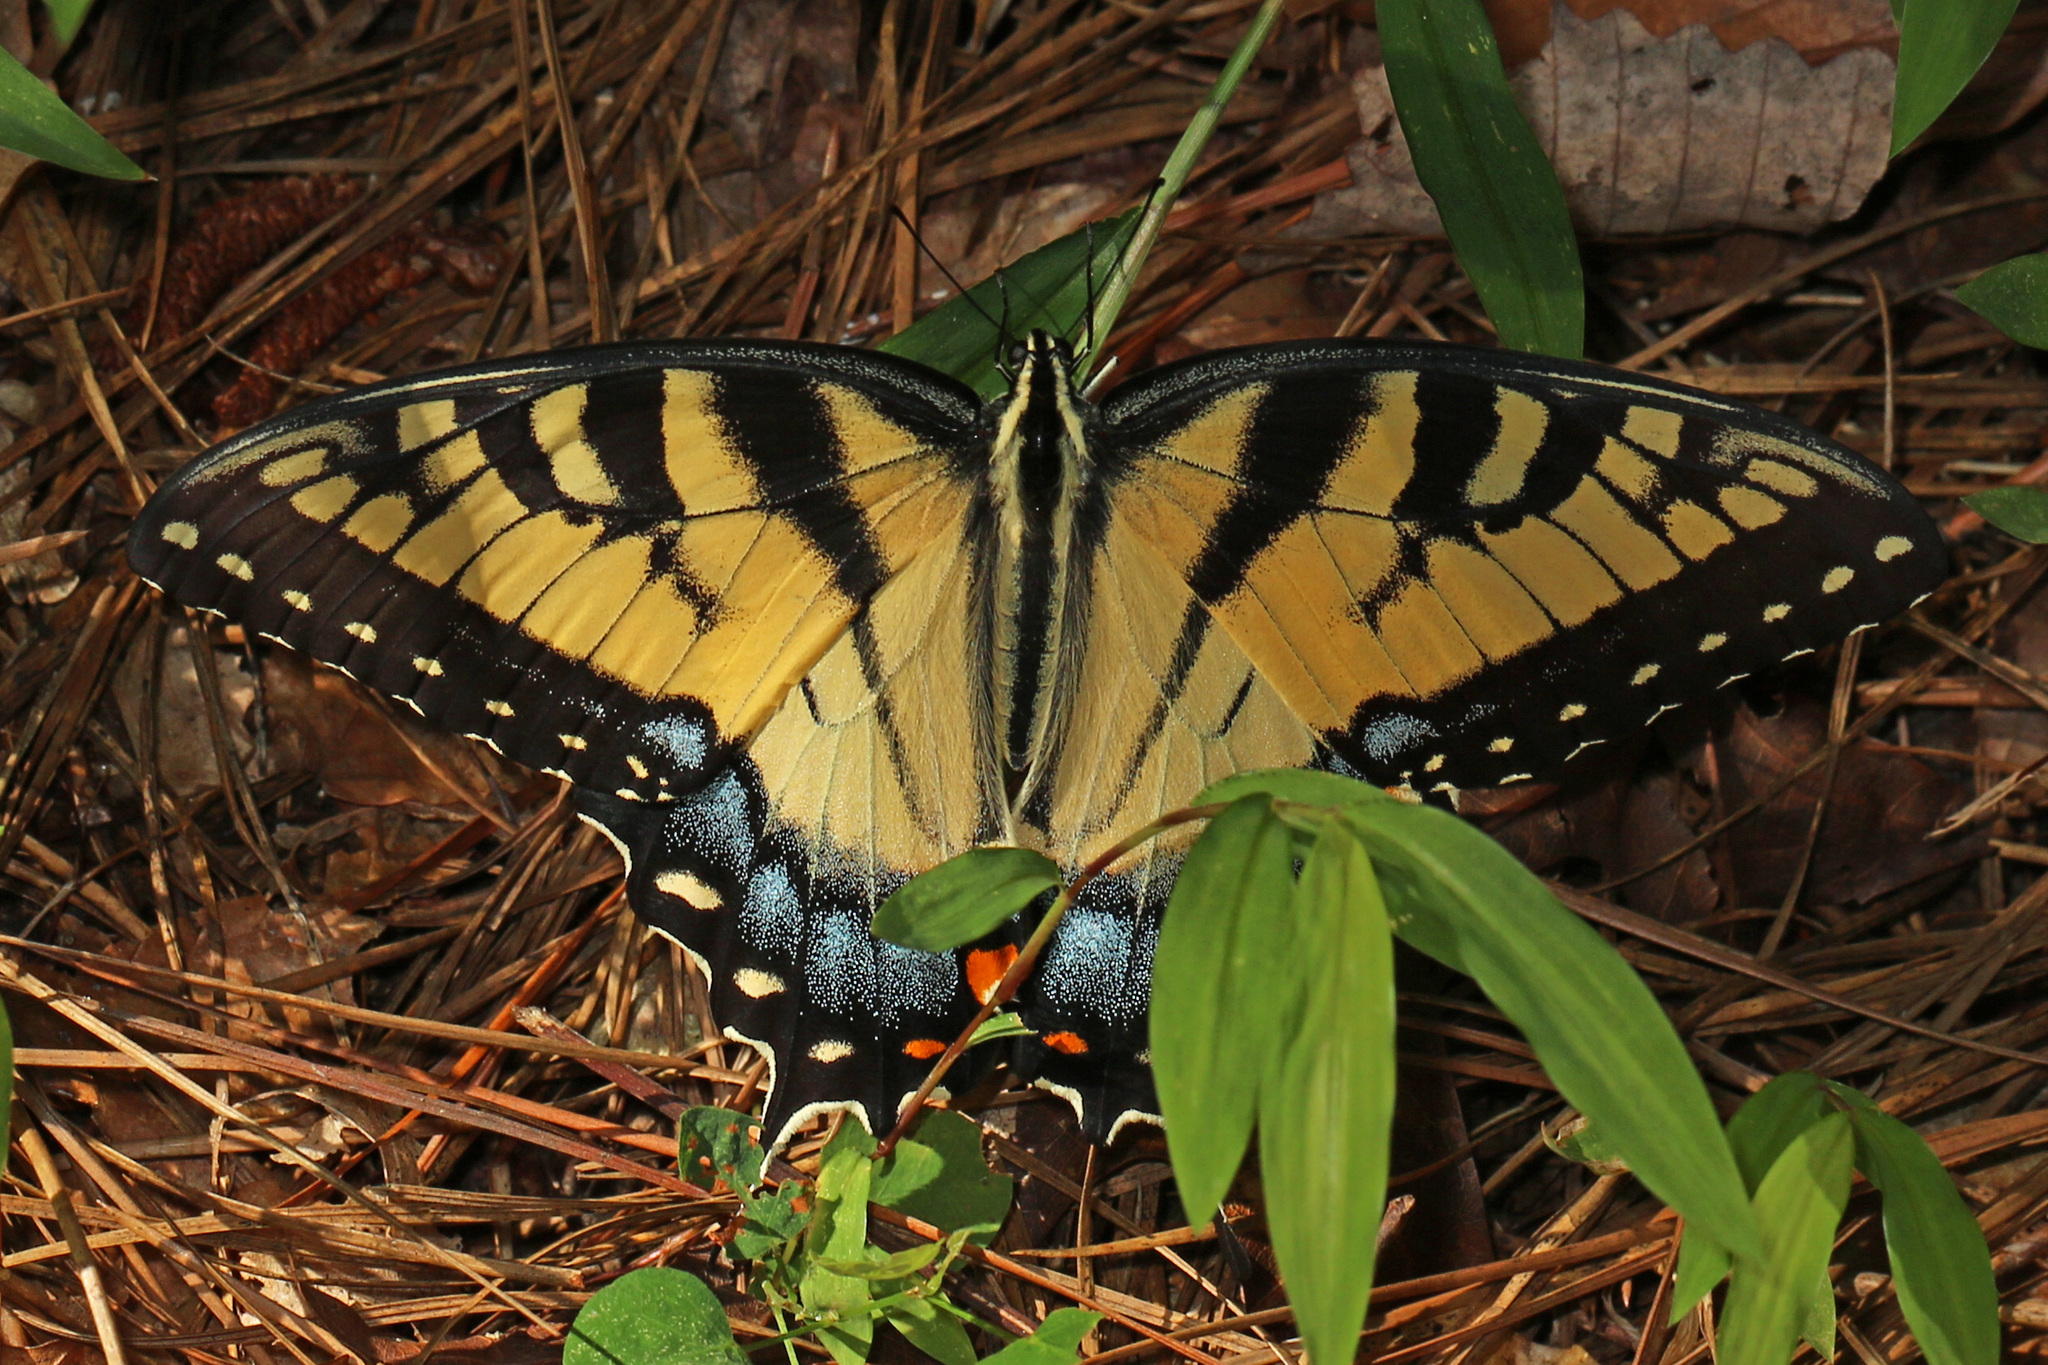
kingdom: Animalia
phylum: Arthropoda
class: Insecta
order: Lepidoptera
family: Papilionidae
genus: Papilio
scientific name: Papilio glaucus
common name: Tiger swallowtail
